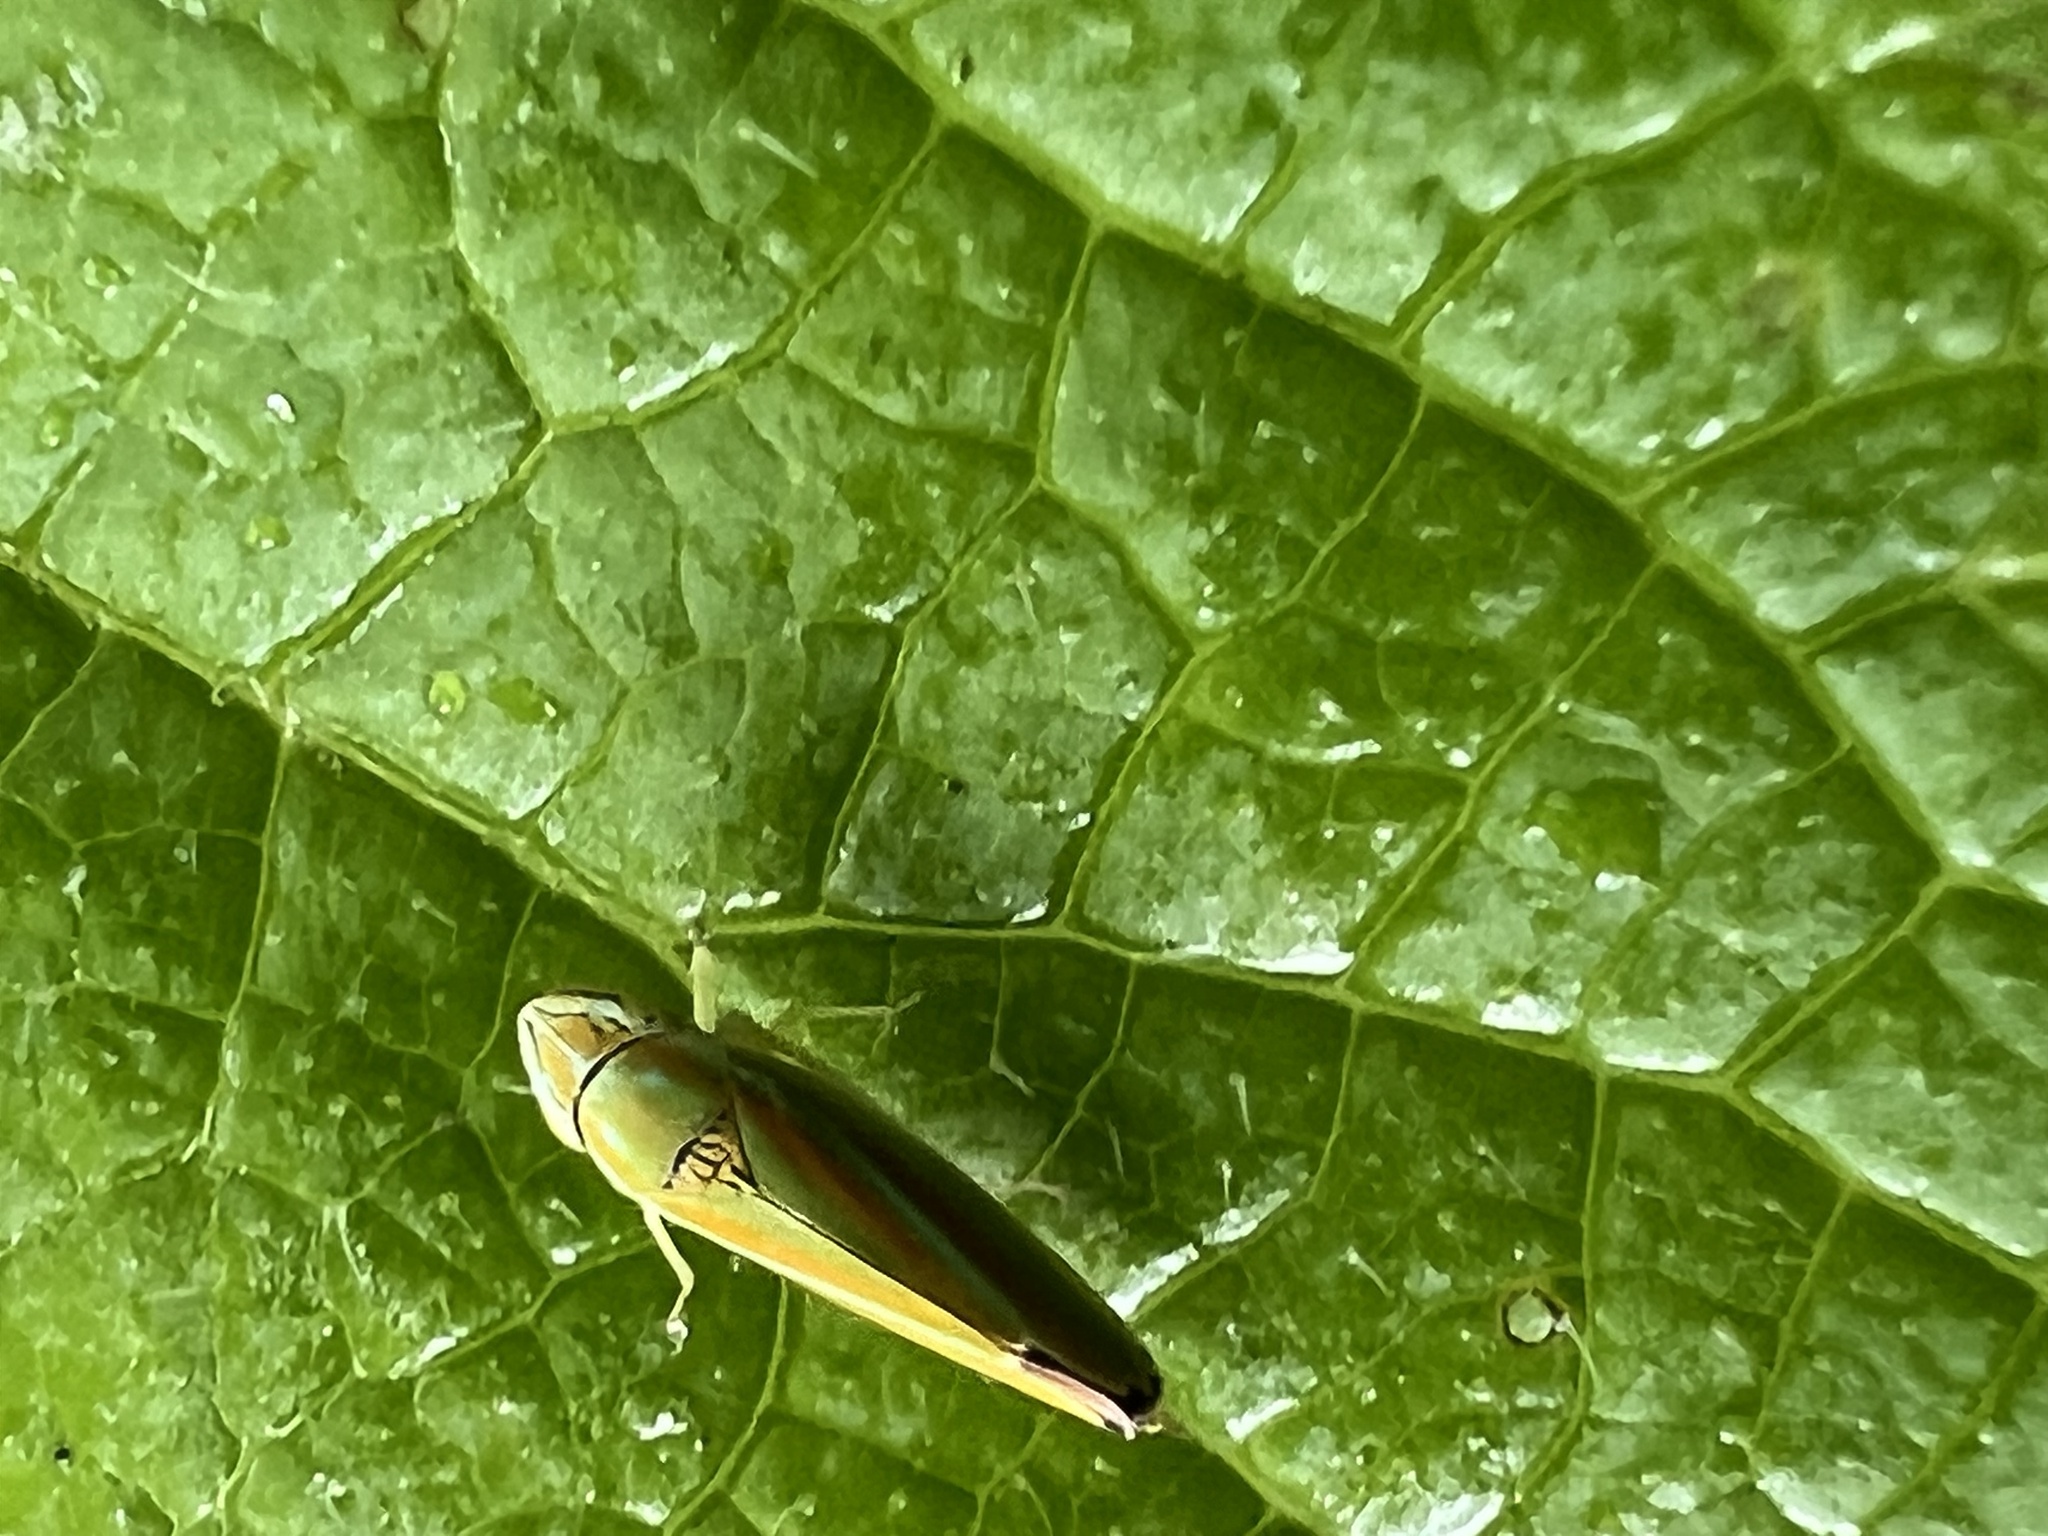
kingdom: Animalia
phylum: Arthropoda
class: Insecta
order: Hemiptera
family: Cicadellidae
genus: Graphocephala
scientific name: Graphocephala versuta
